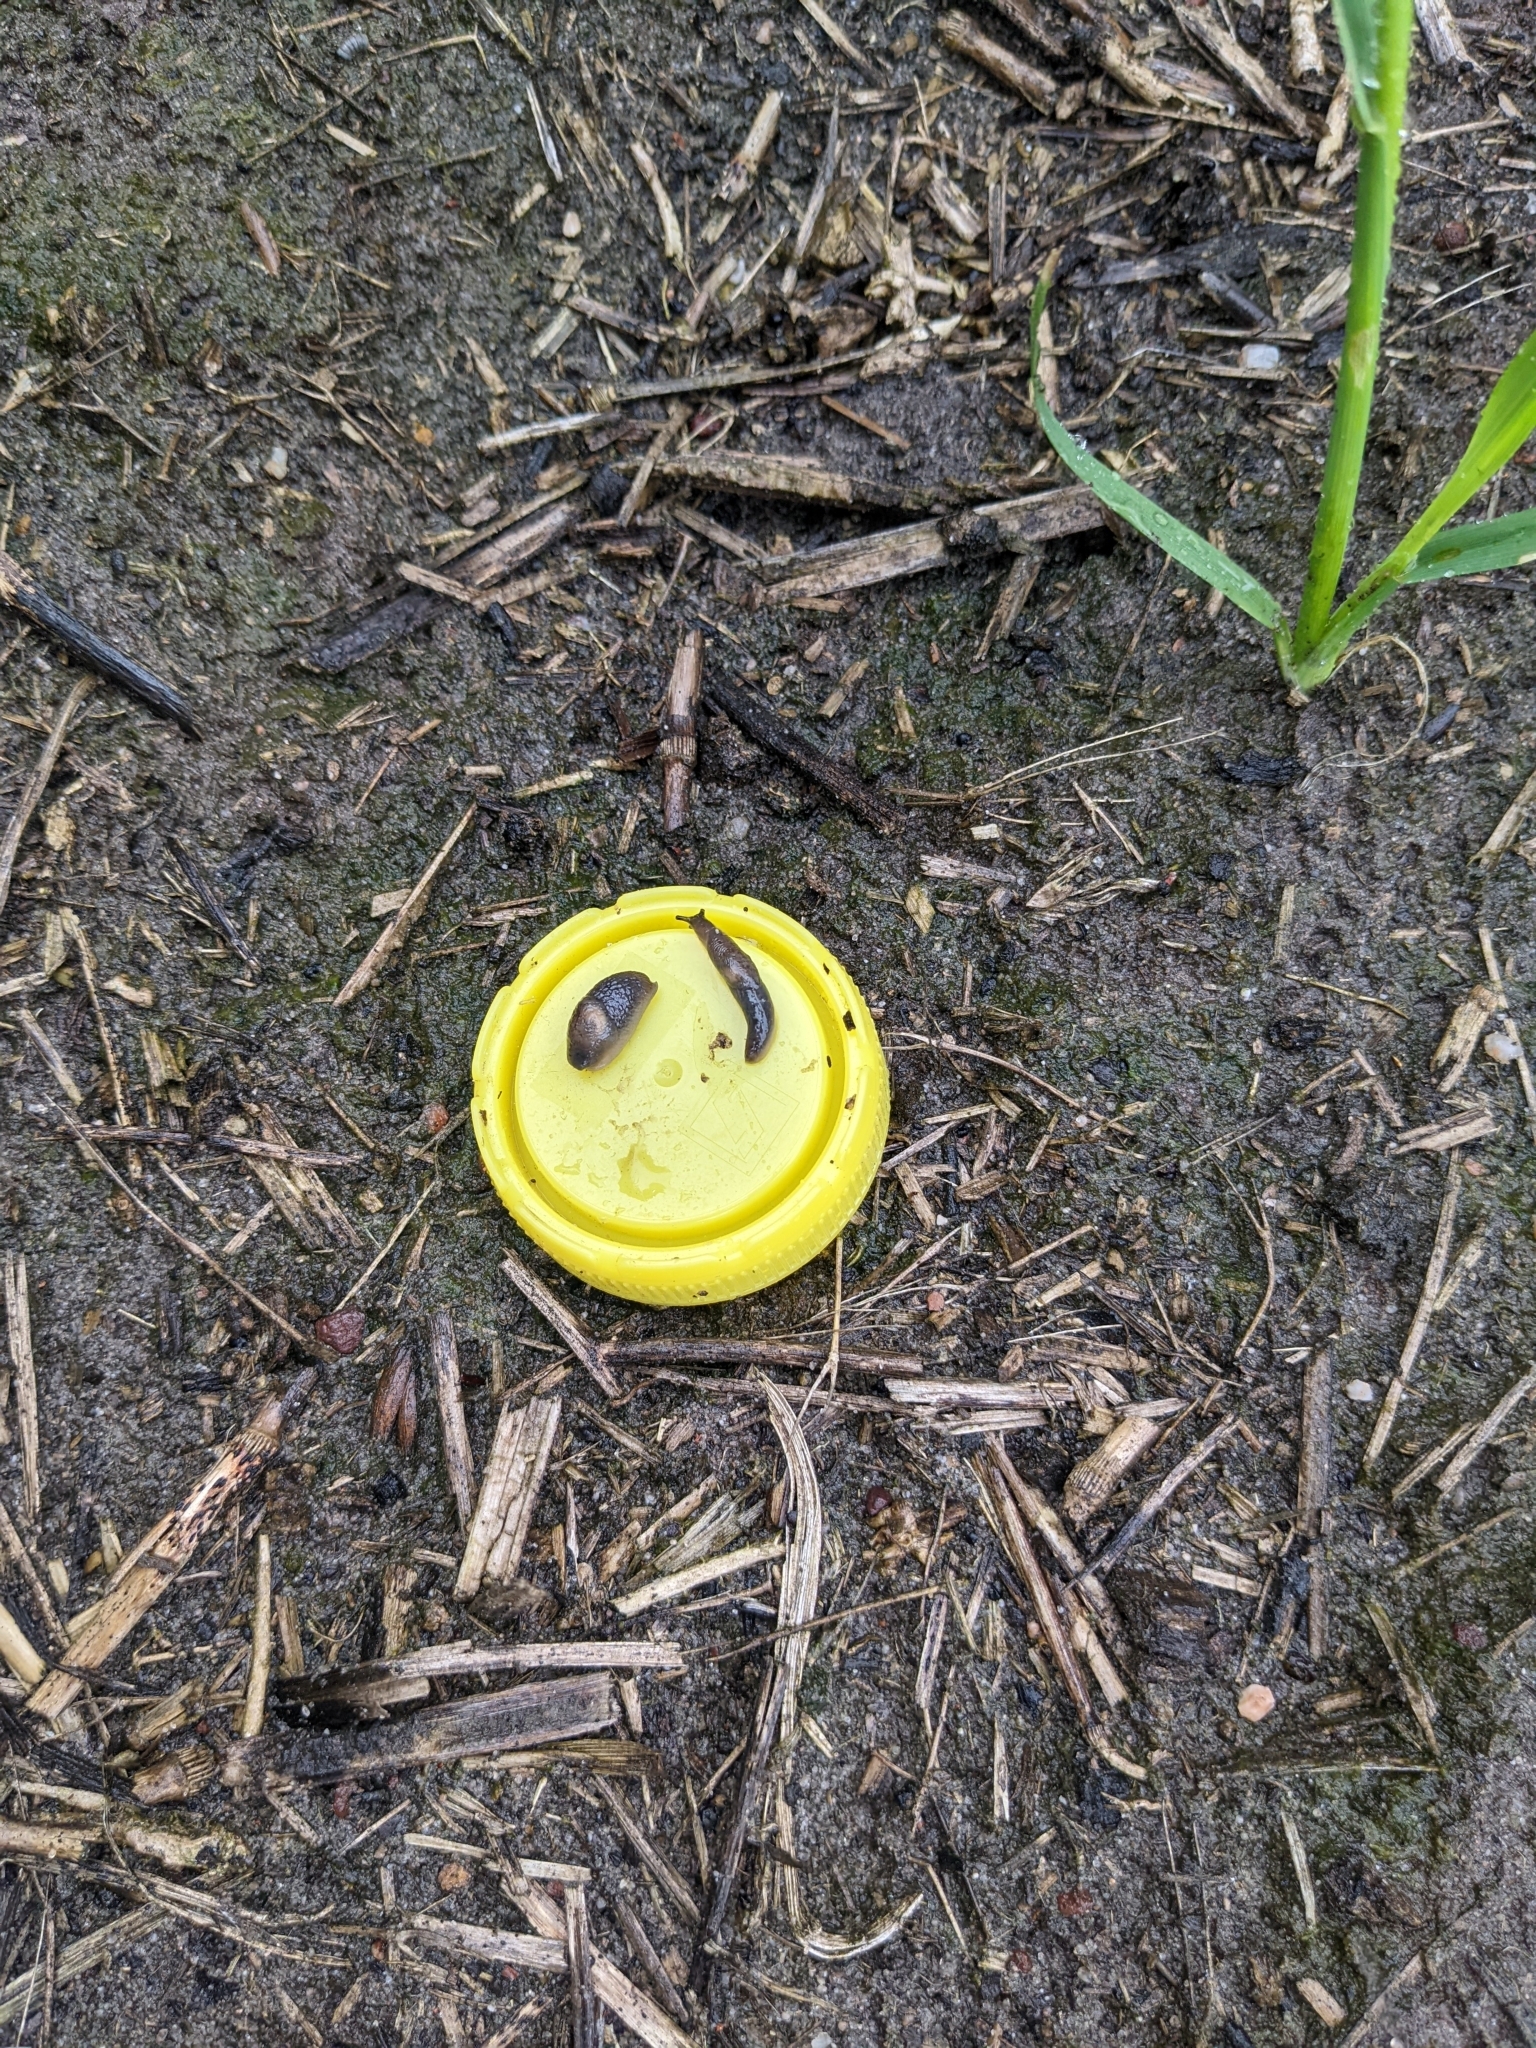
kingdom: Animalia
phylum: Mollusca
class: Gastropoda
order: Stylommatophora
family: Agriolimacidae
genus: Deroceras
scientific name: Deroceras invadens
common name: Caruana's slug
